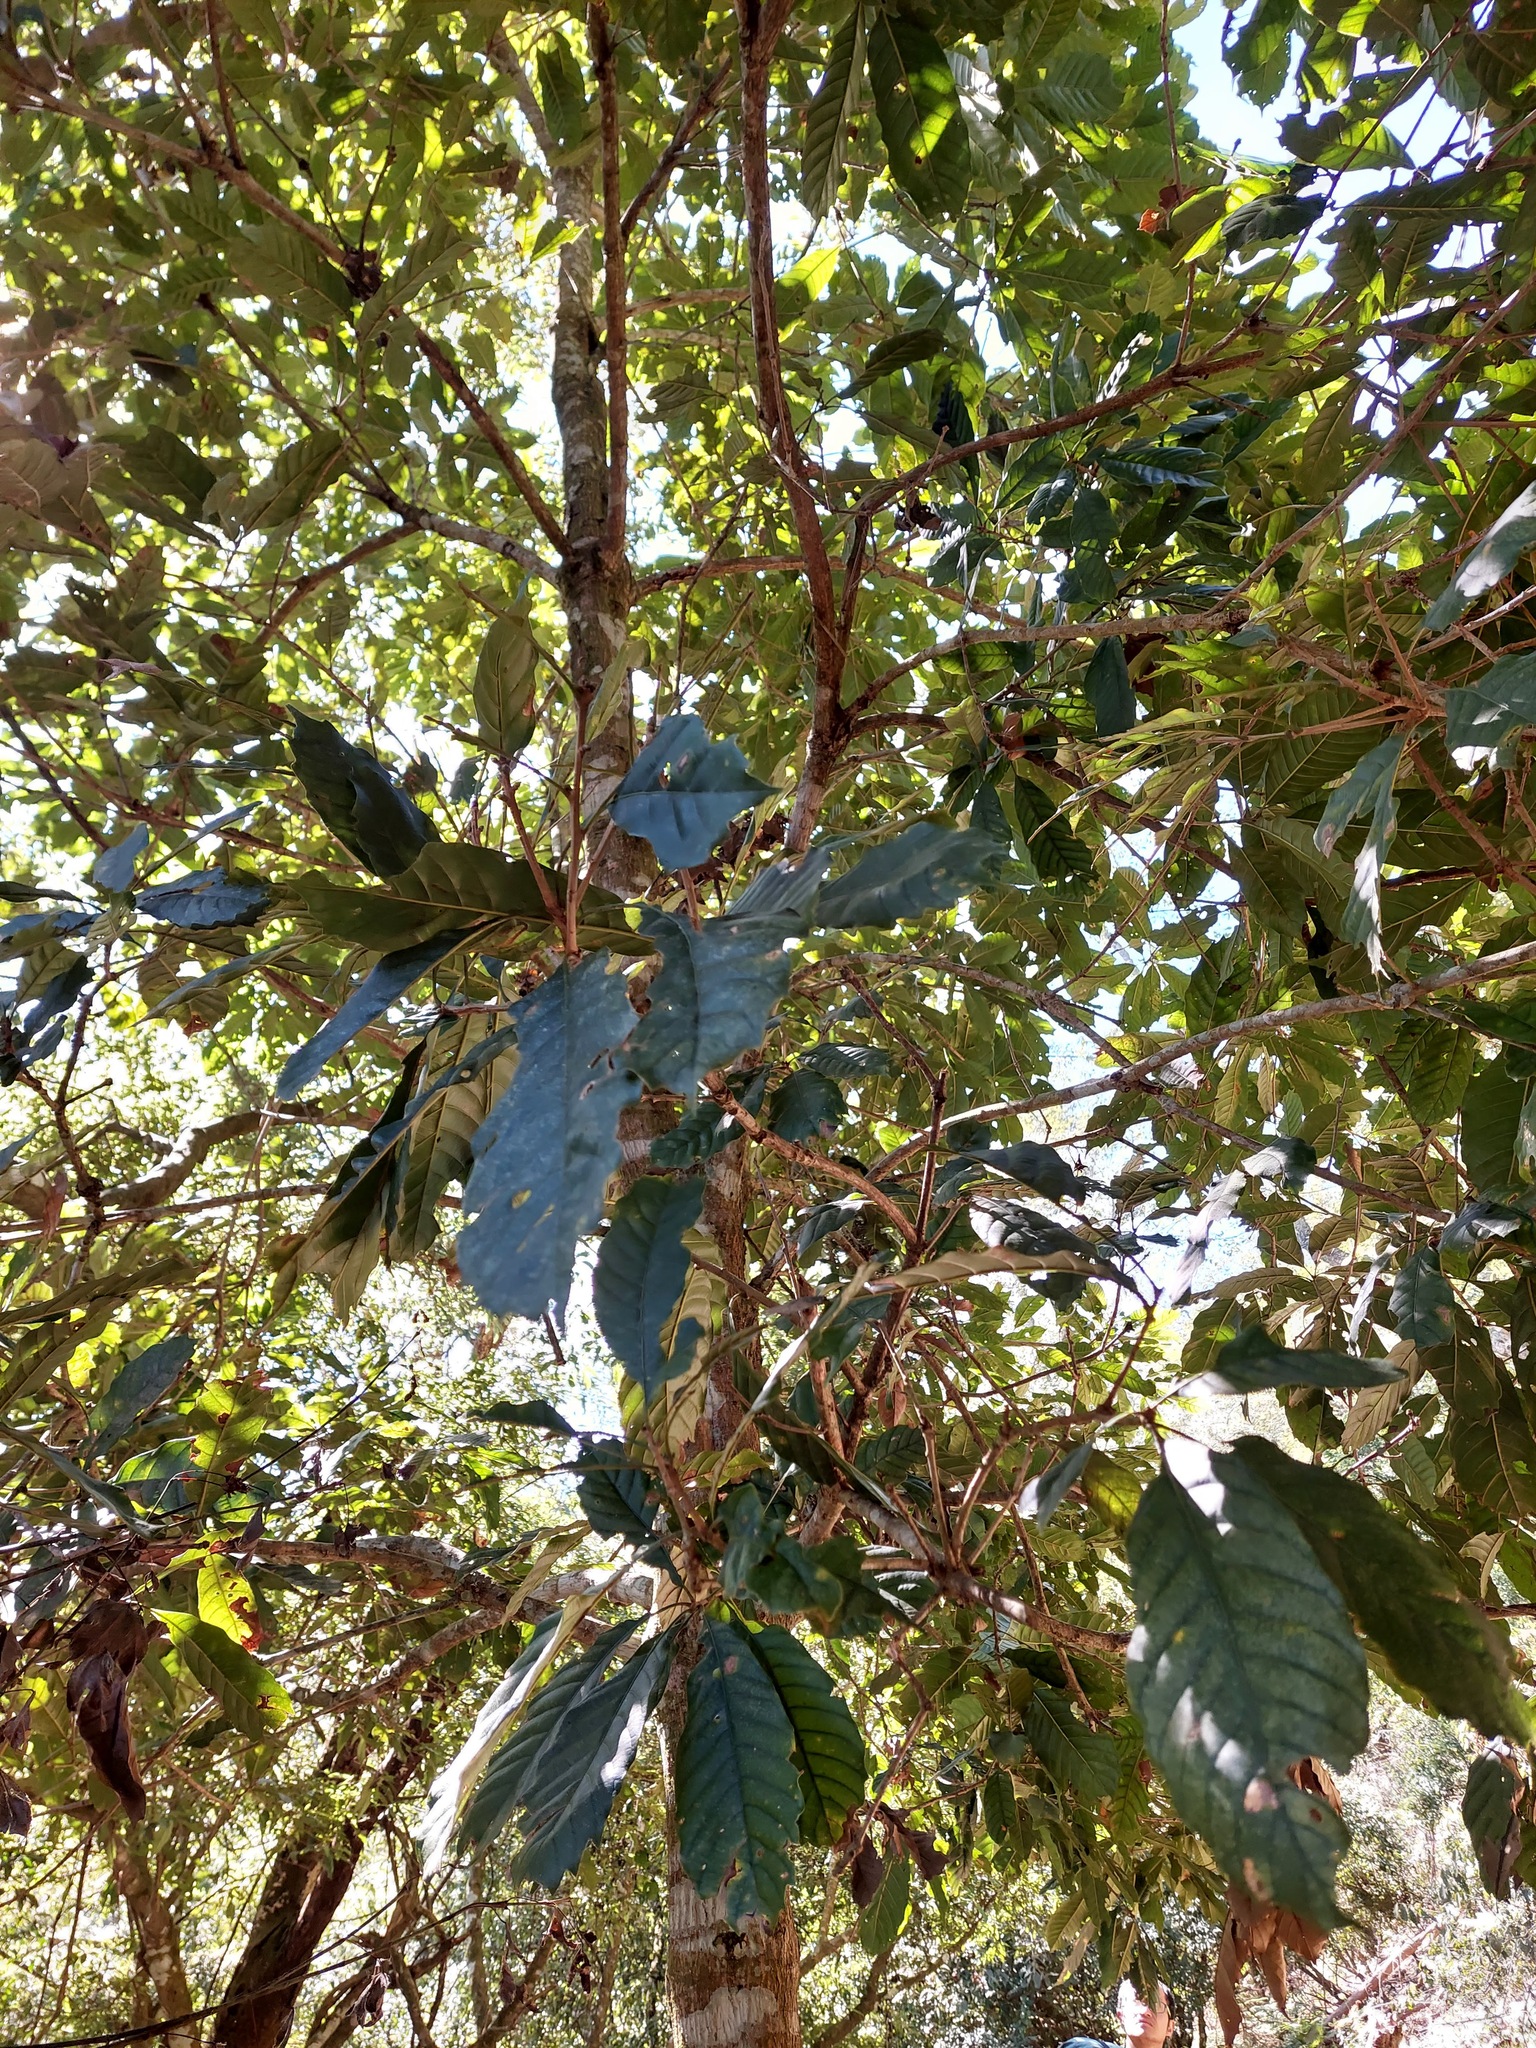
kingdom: Plantae
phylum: Tracheophyta
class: Magnoliopsida
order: Fagales
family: Fagaceae
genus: Lithocarpus
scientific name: Lithocarpus kawakamii
